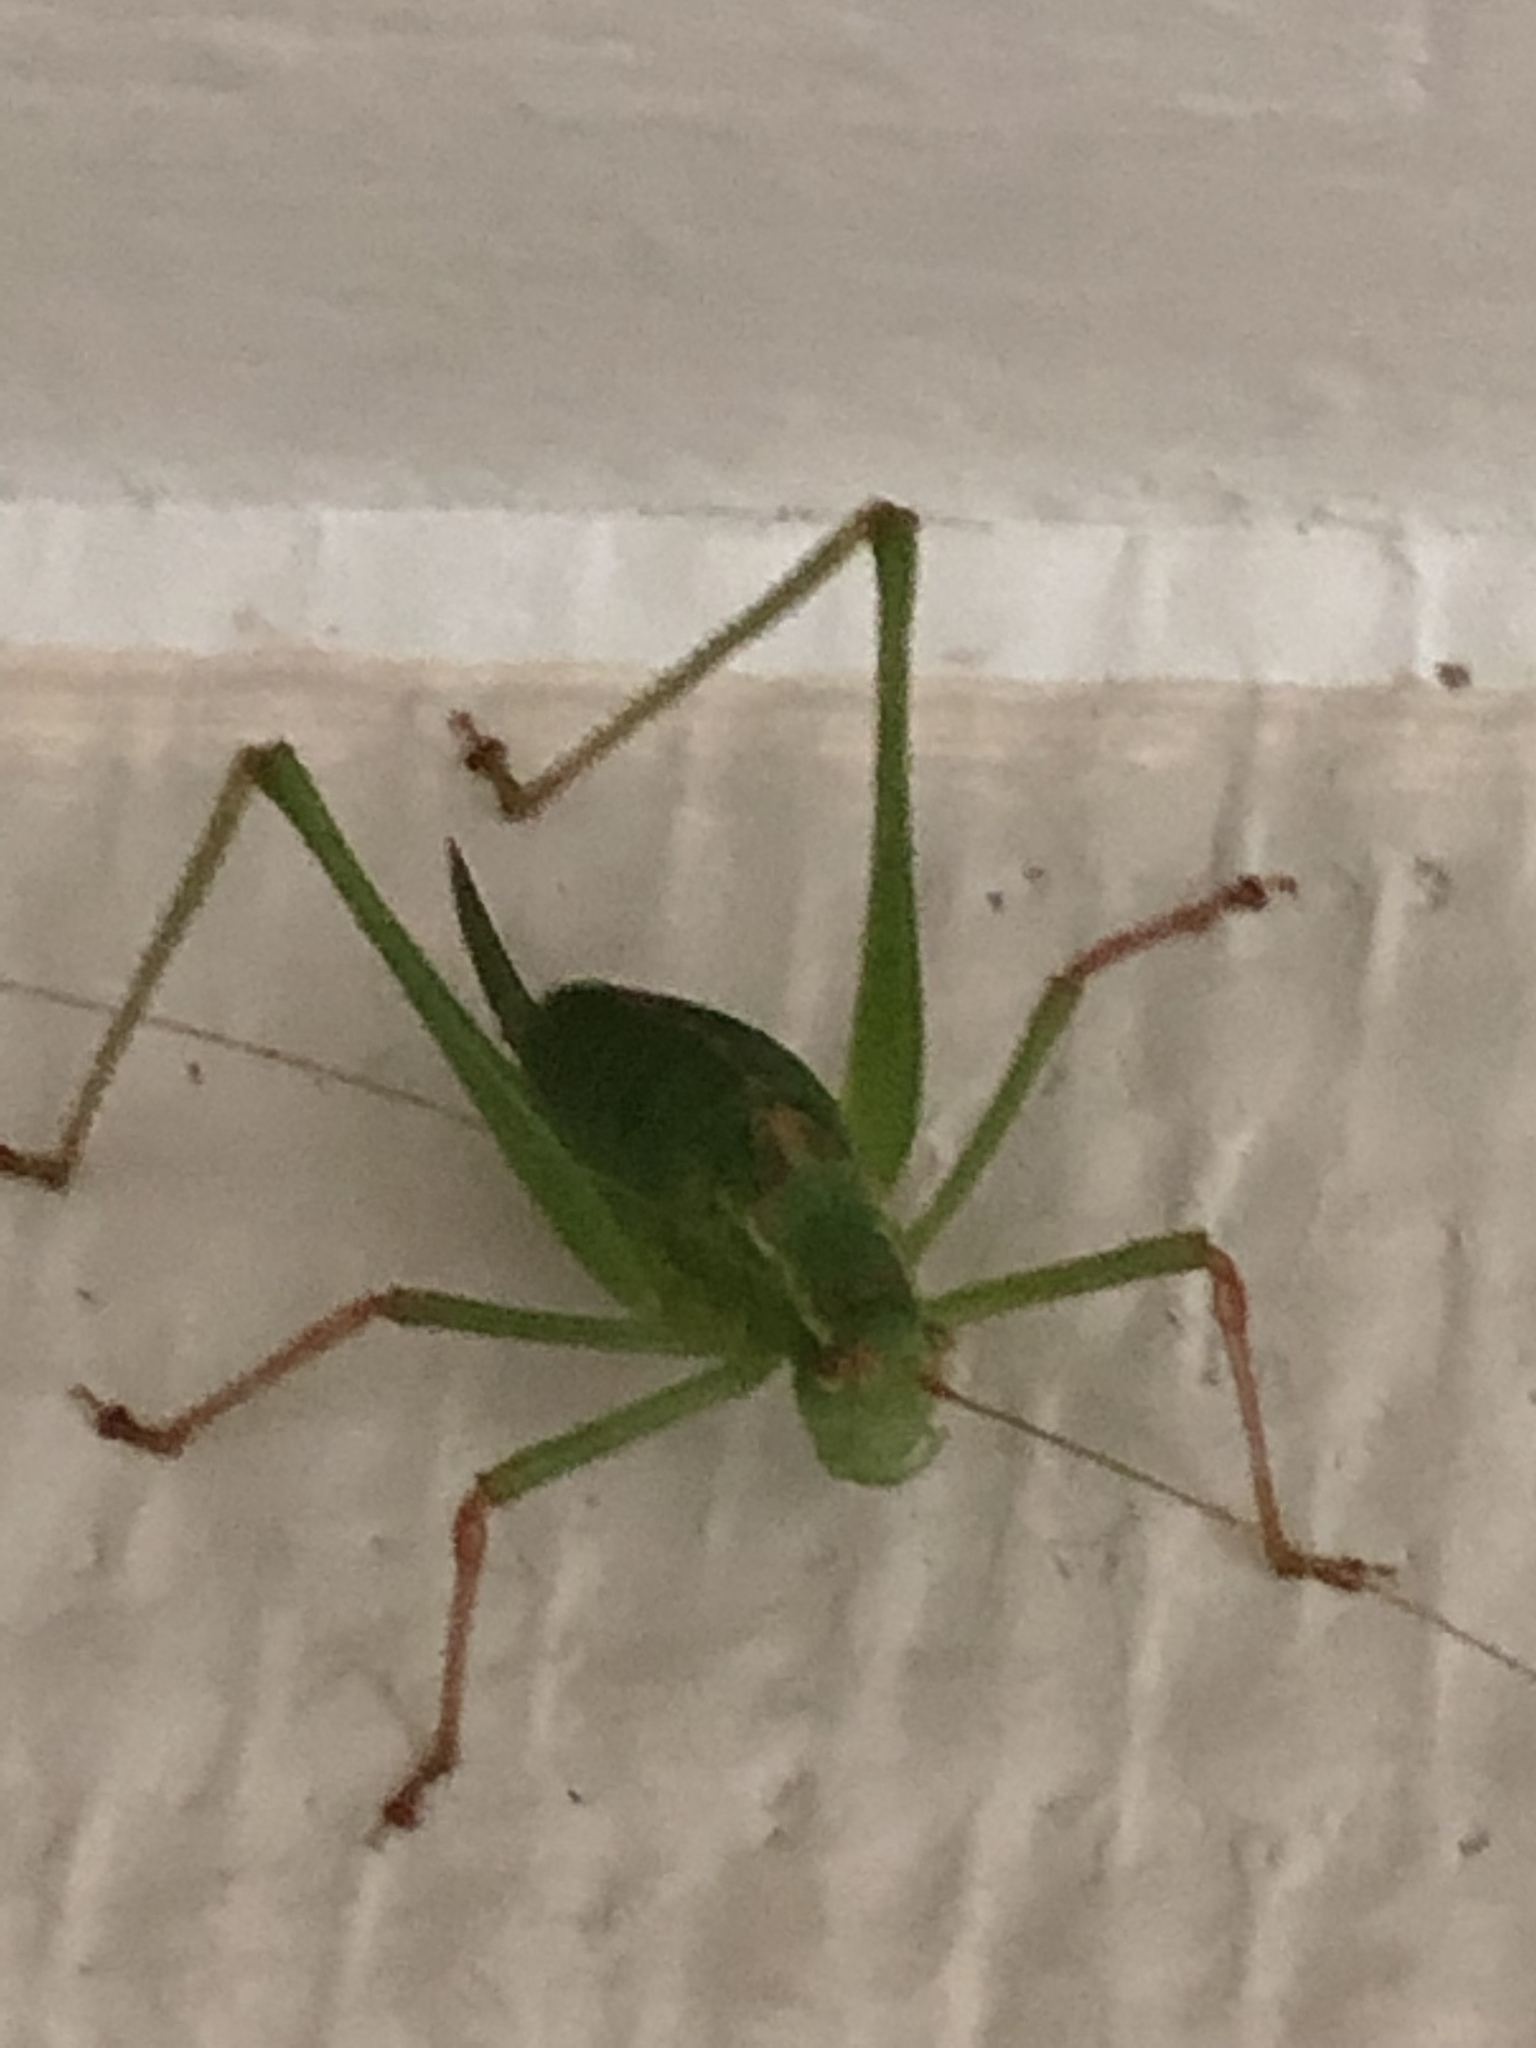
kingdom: Animalia
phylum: Arthropoda
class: Insecta
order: Orthoptera
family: Tettigoniidae
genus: Leptophyes
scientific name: Leptophyes punctatissima
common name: Speckled bush-cricket
